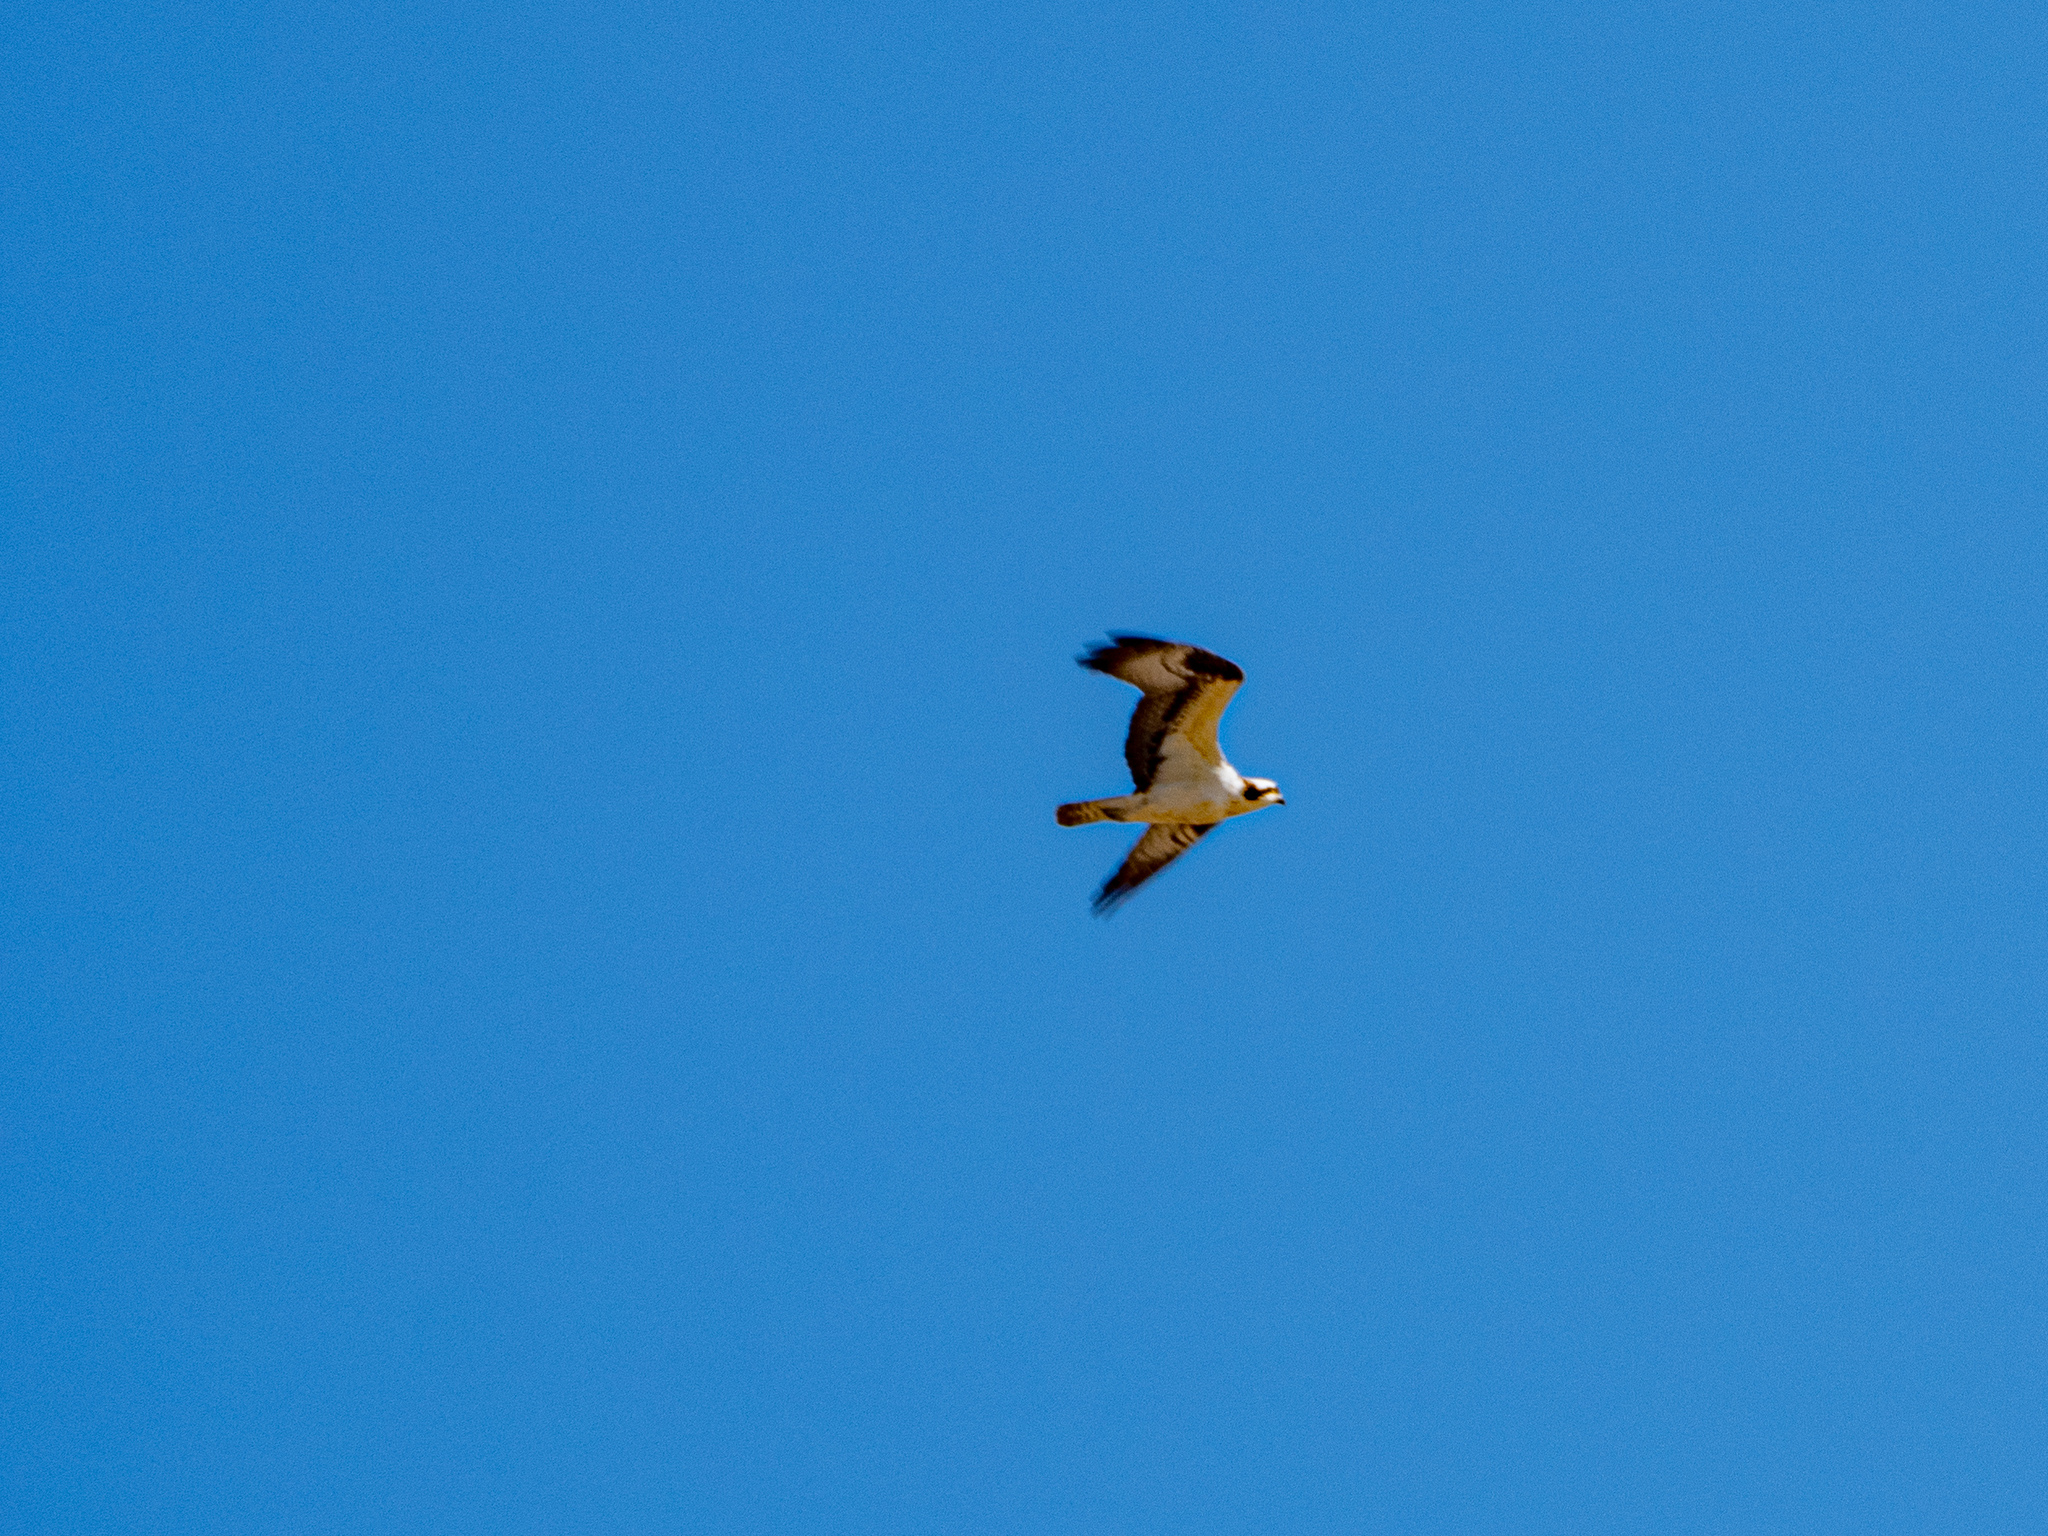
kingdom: Animalia
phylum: Chordata
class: Aves
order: Accipitriformes
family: Pandionidae
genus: Pandion
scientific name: Pandion haliaetus
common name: Osprey
